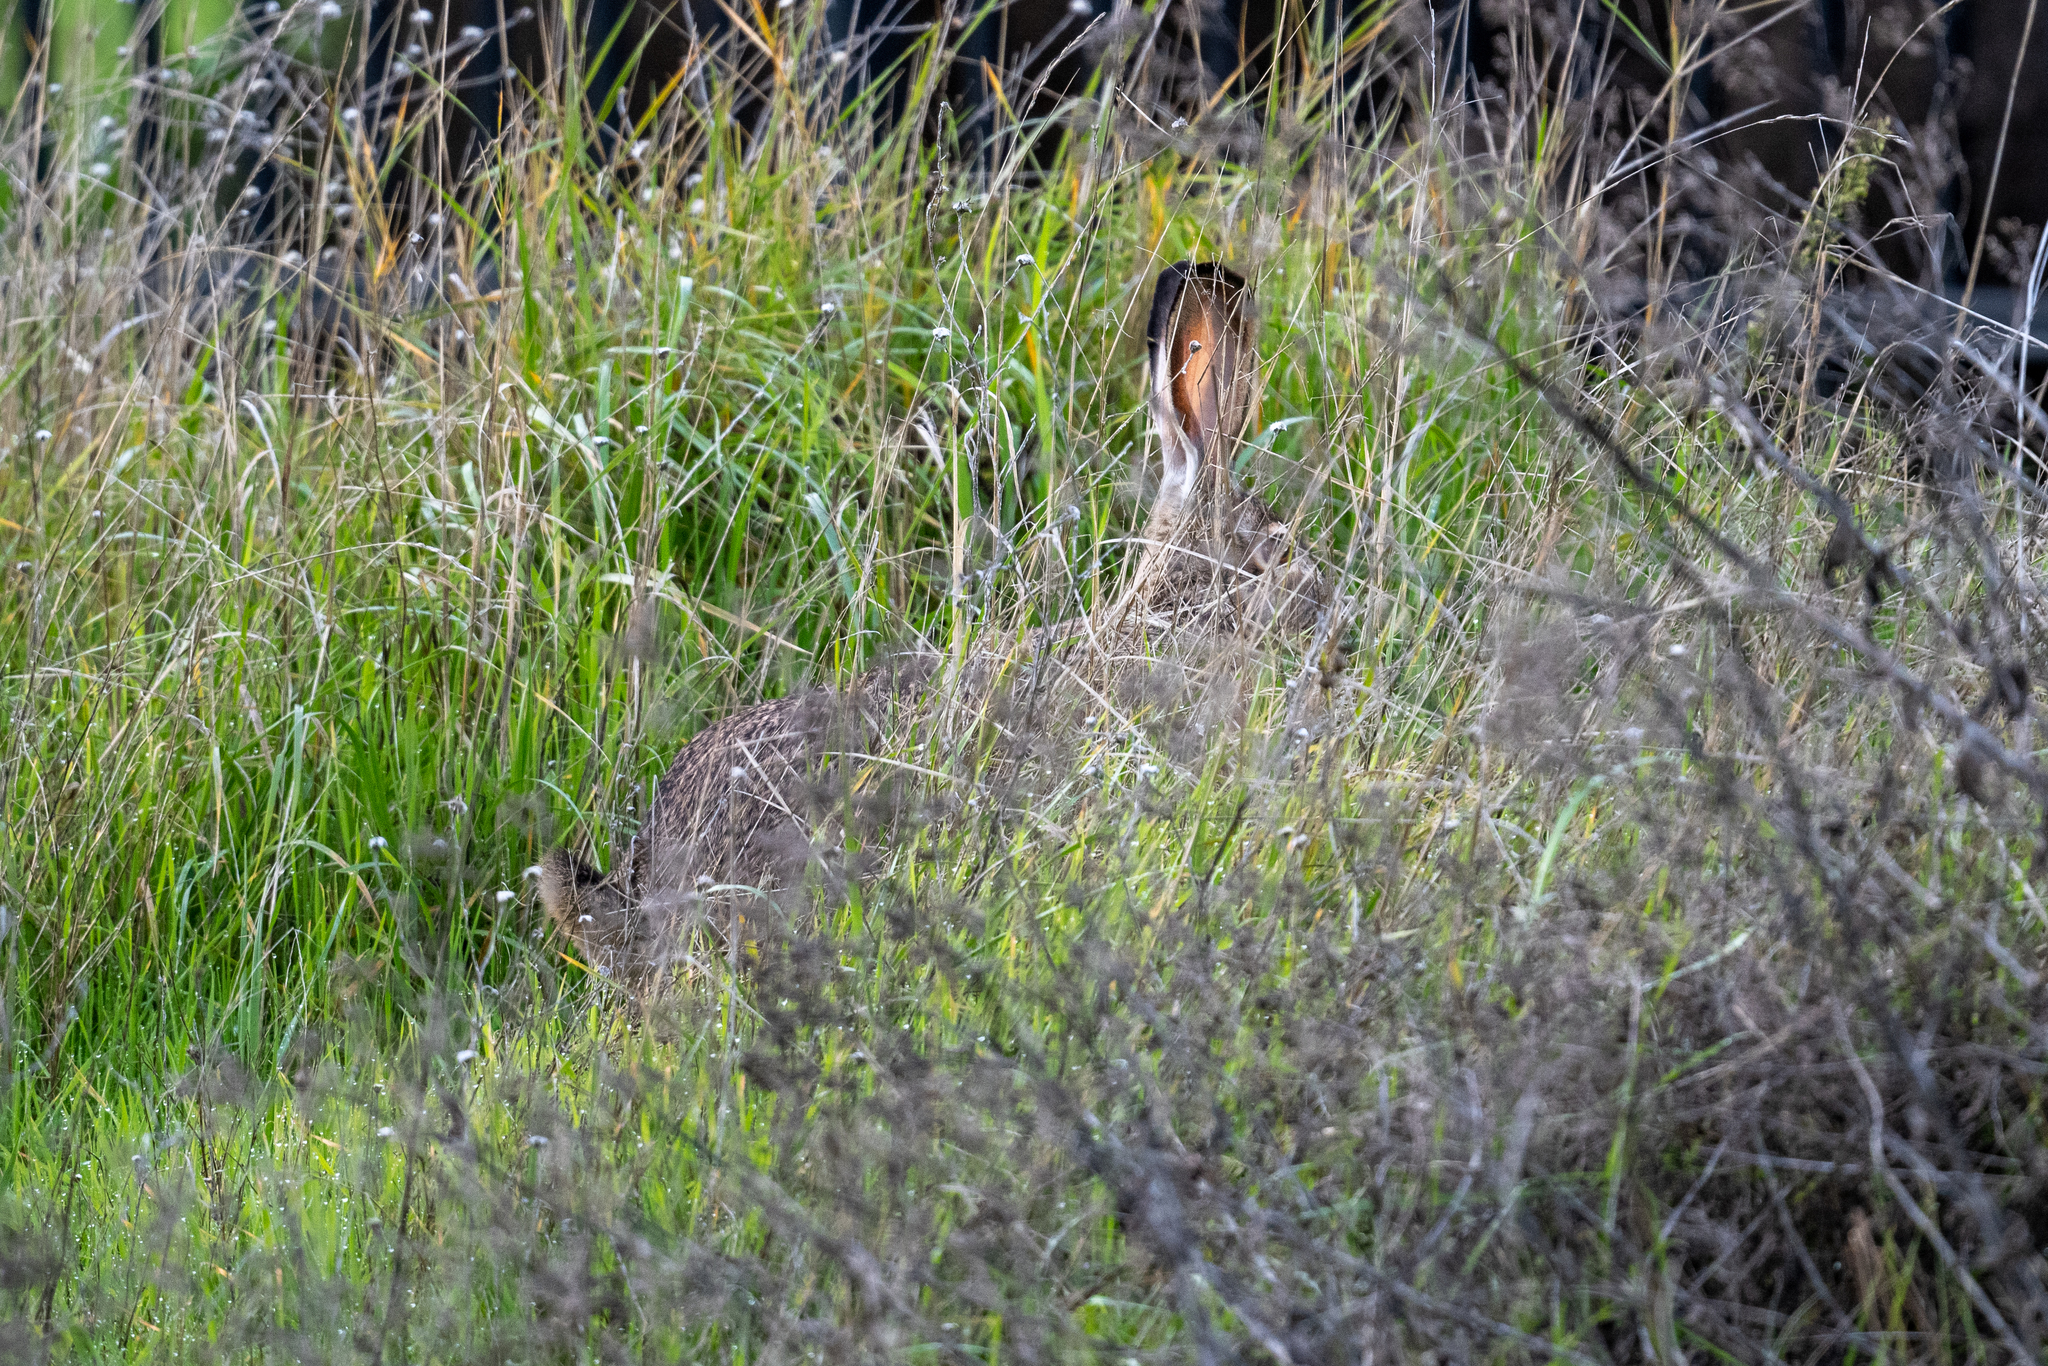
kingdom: Animalia
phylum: Chordata
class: Mammalia
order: Lagomorpha
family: Leporidae
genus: Lepus
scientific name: Lepus californicus
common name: Black-tailed jackrabbit
